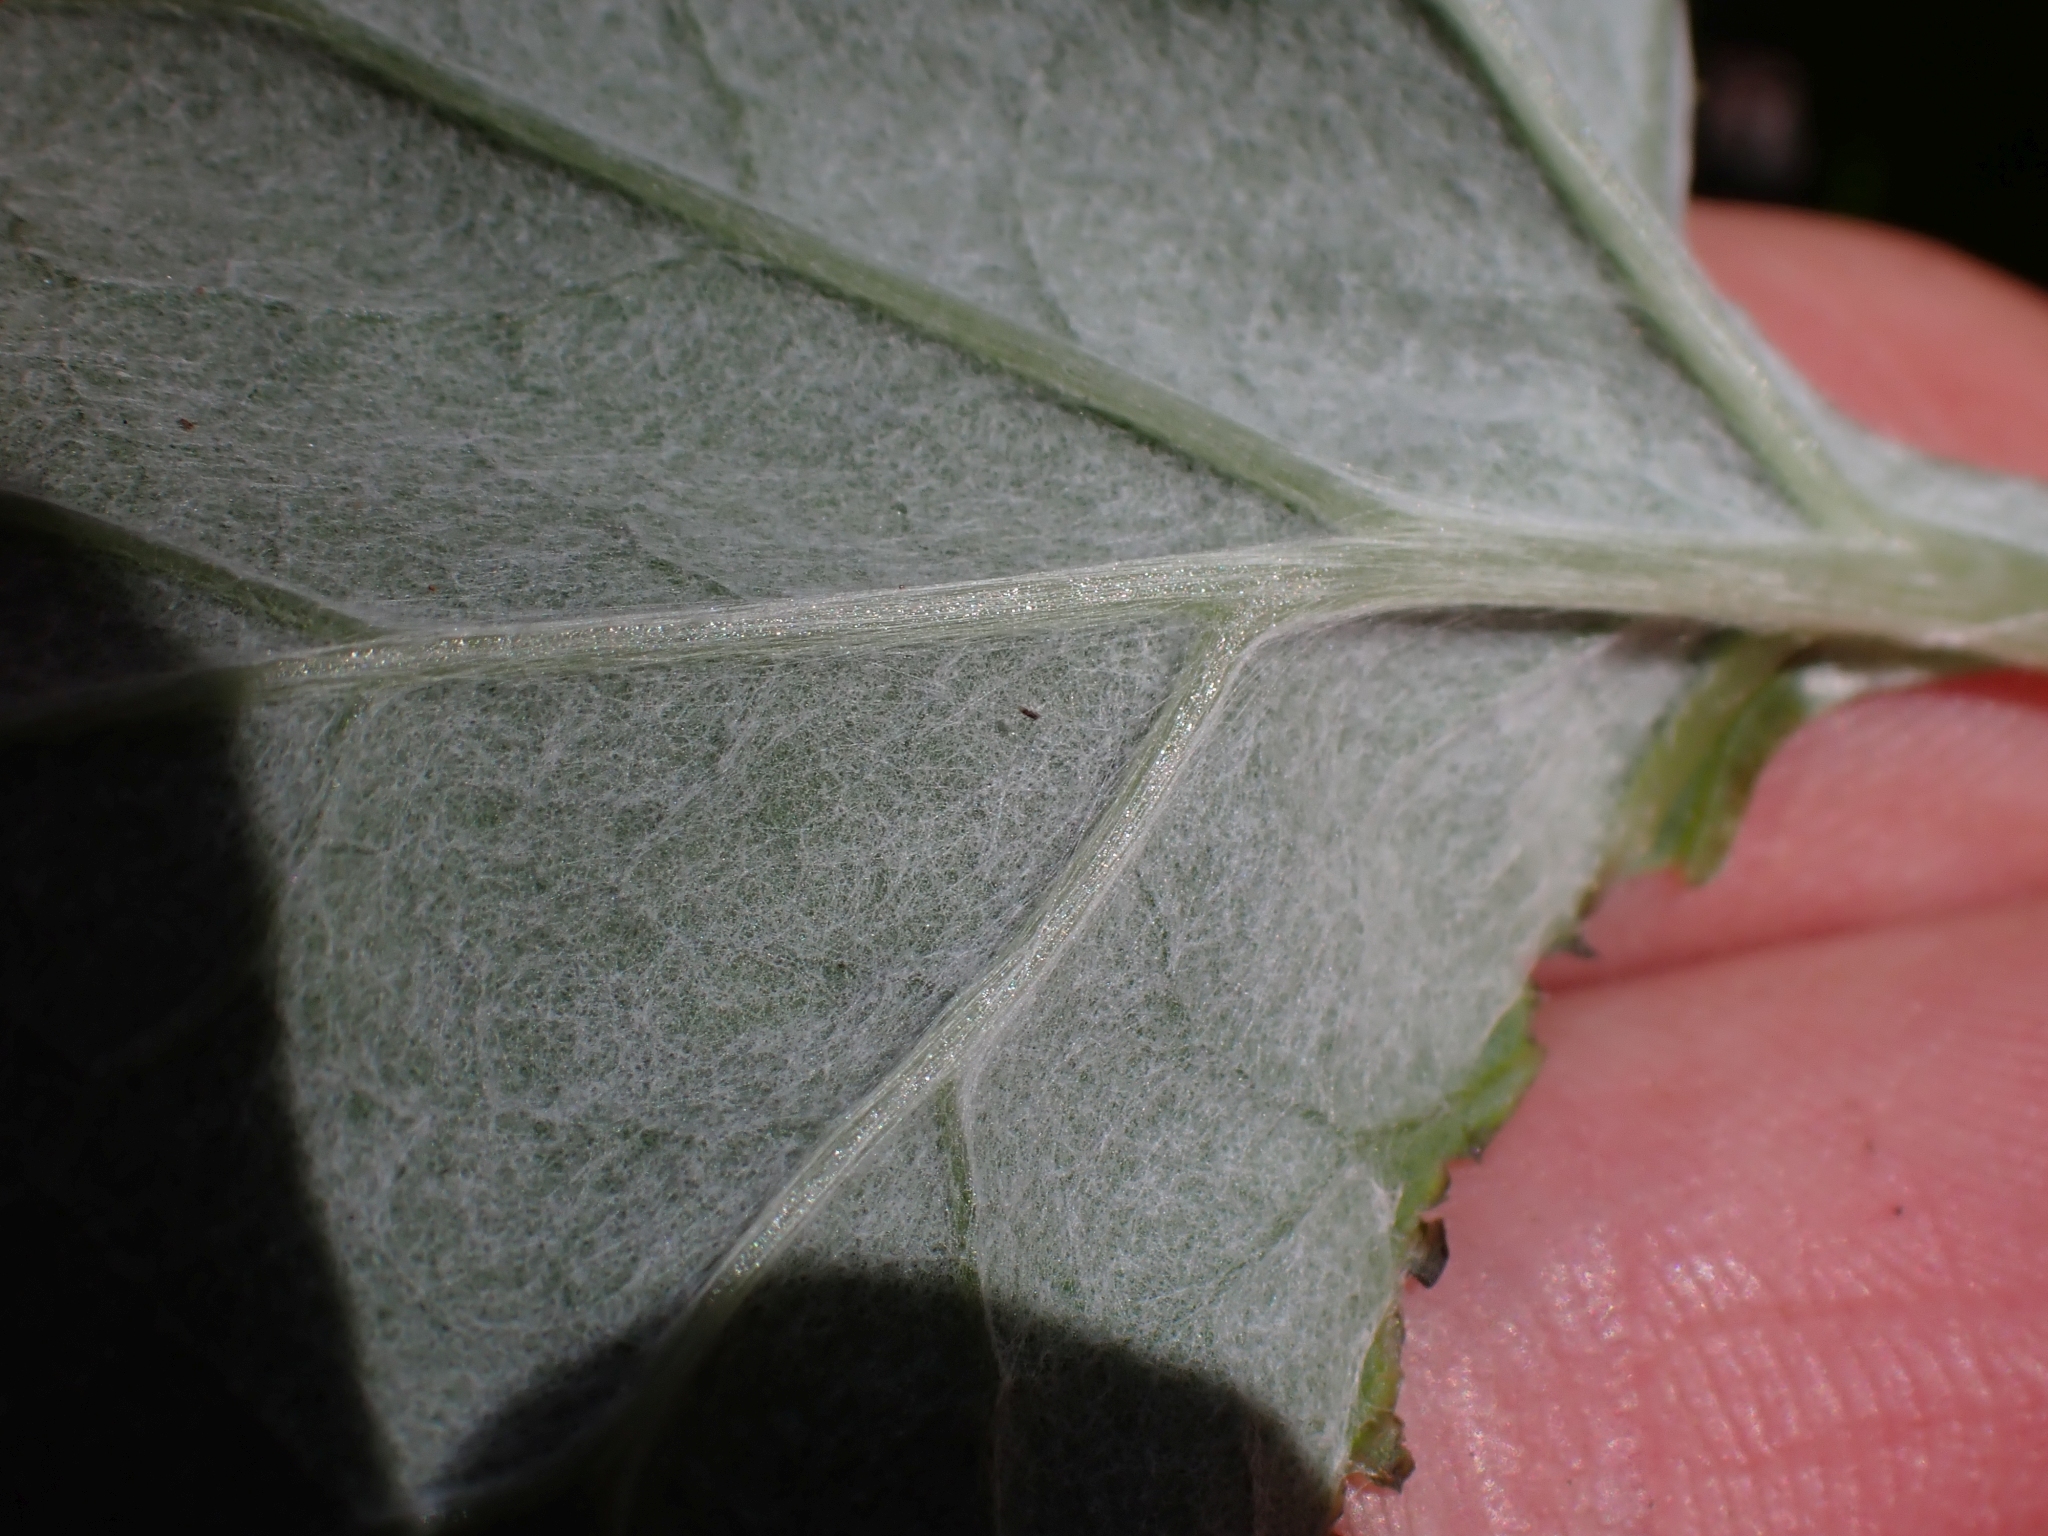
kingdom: Plantae
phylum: Tracheophyta
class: Magnoliopsida
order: Asterales
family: Asteraceae
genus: Adenocaulon
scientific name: Adenocaulon bicolor
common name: Trailplant
